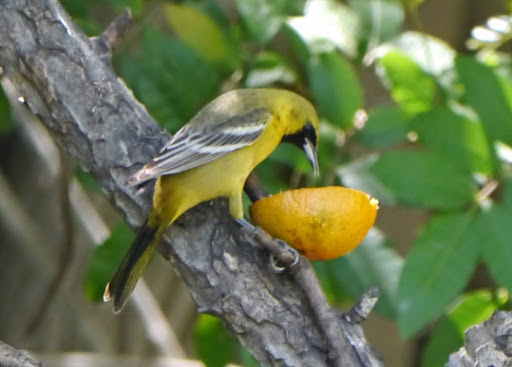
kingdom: Animalia
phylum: Chordata
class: Aves
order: Passeriformes
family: Icteridae
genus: Icterus
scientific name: Icterus spurius
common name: Orchard oriole
